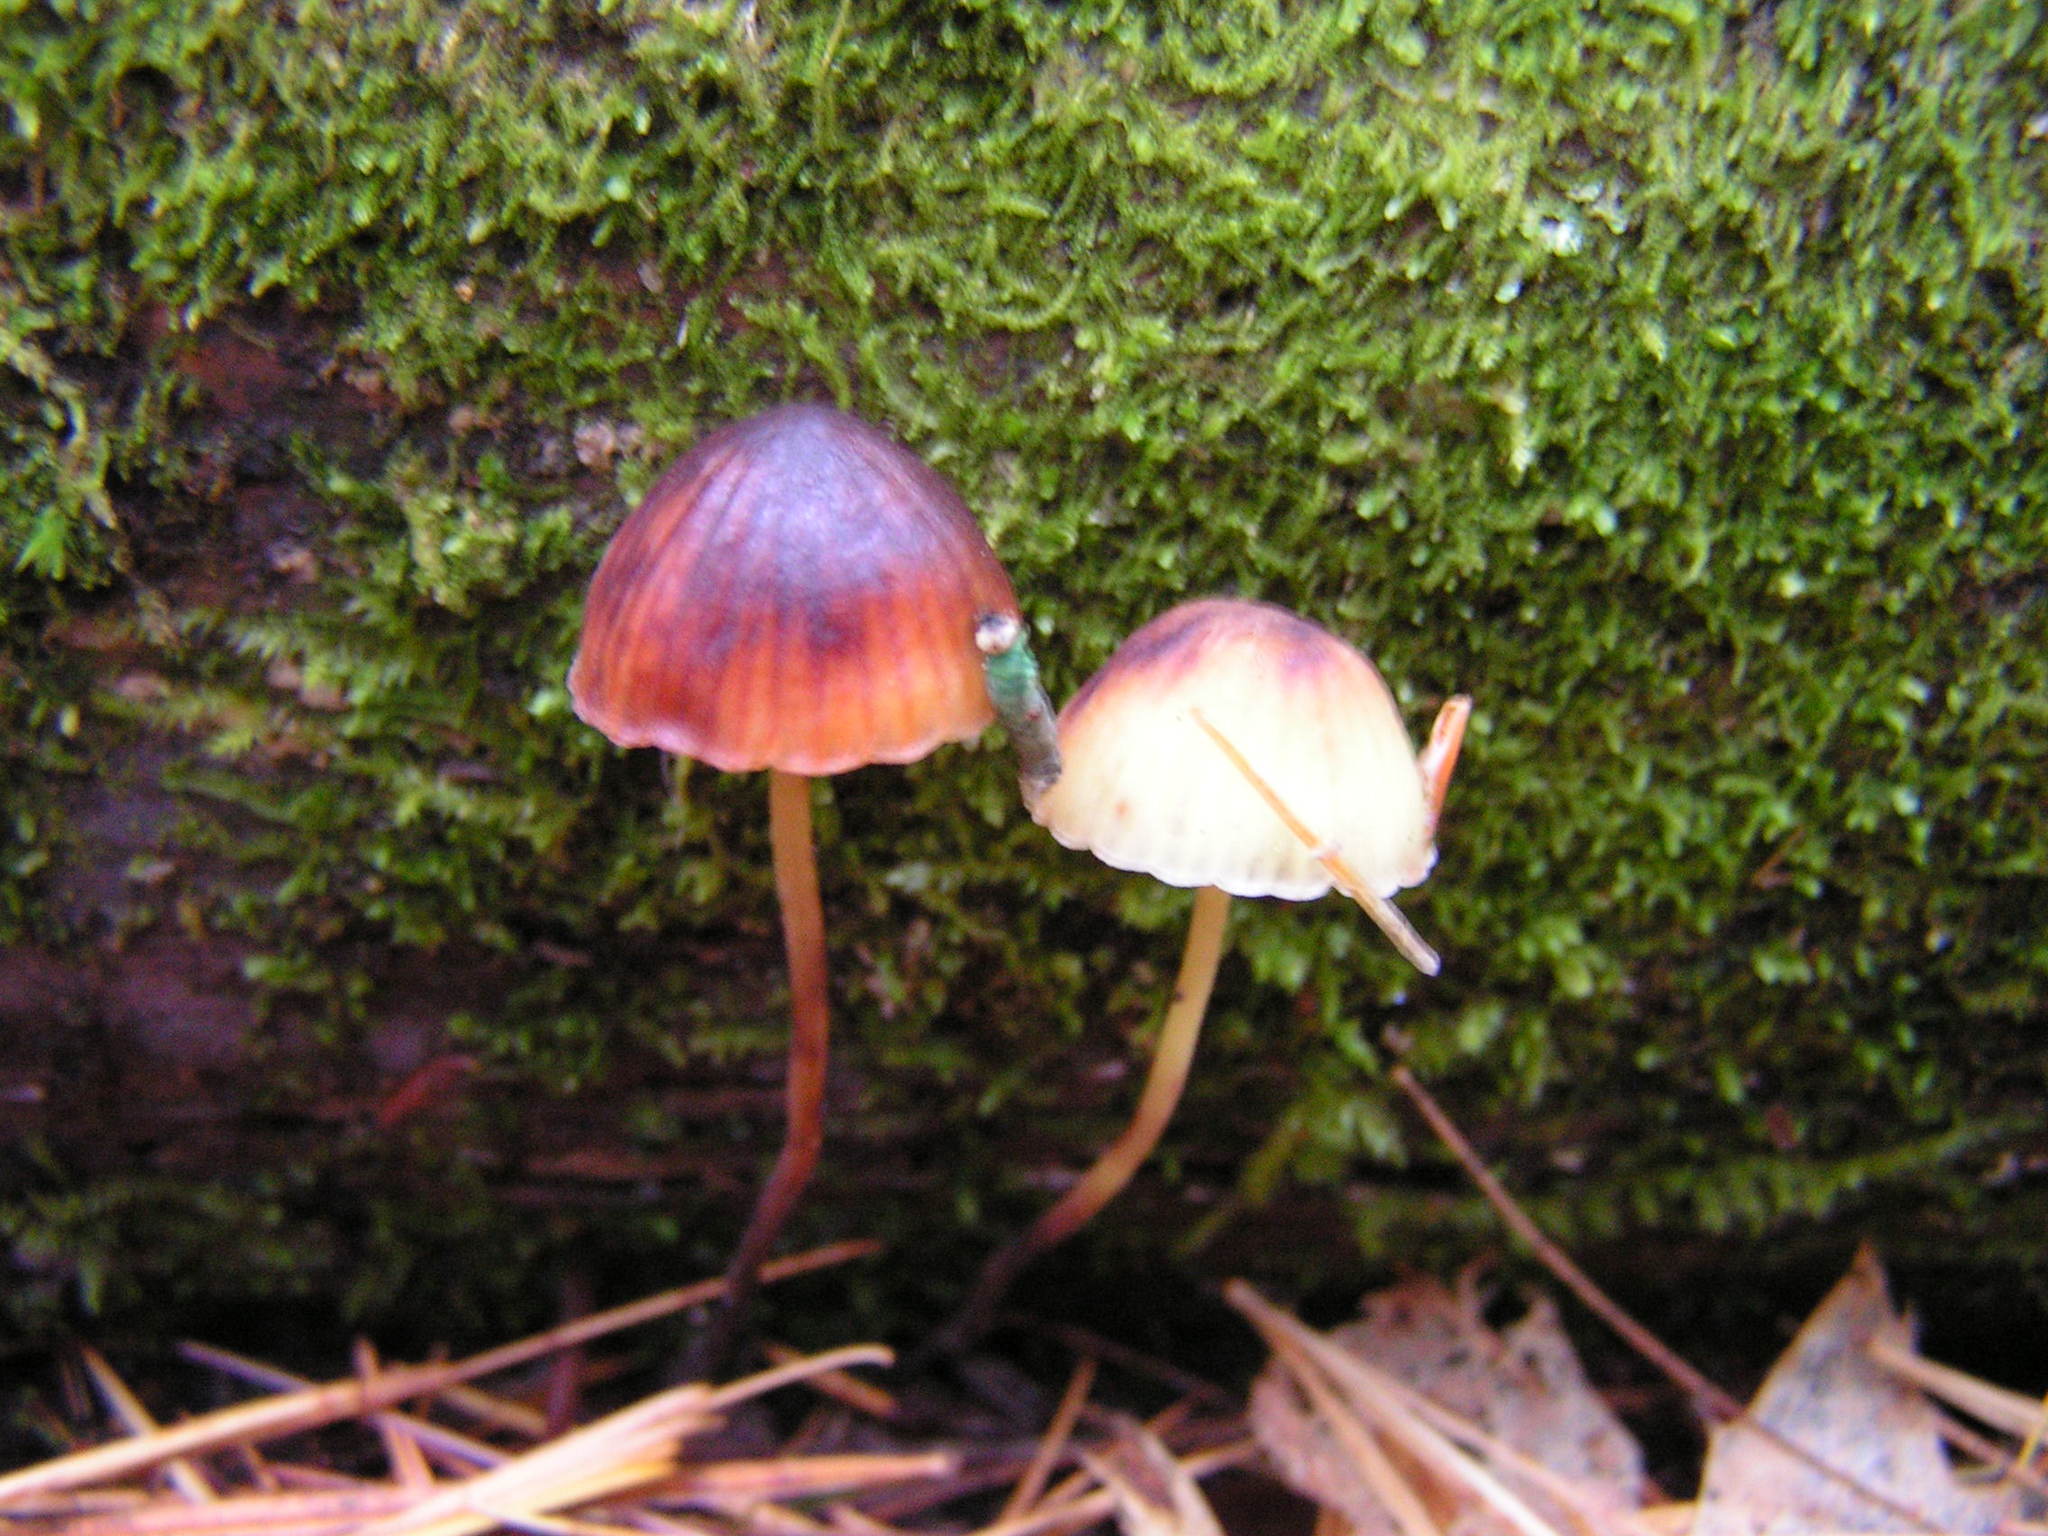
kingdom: Fungi
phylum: Basidiomycota
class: Agaricomycetes
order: Agaricales
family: Mycenaceae
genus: Mycena
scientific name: Mycena epipterygia
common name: Yellowleg bonnet
